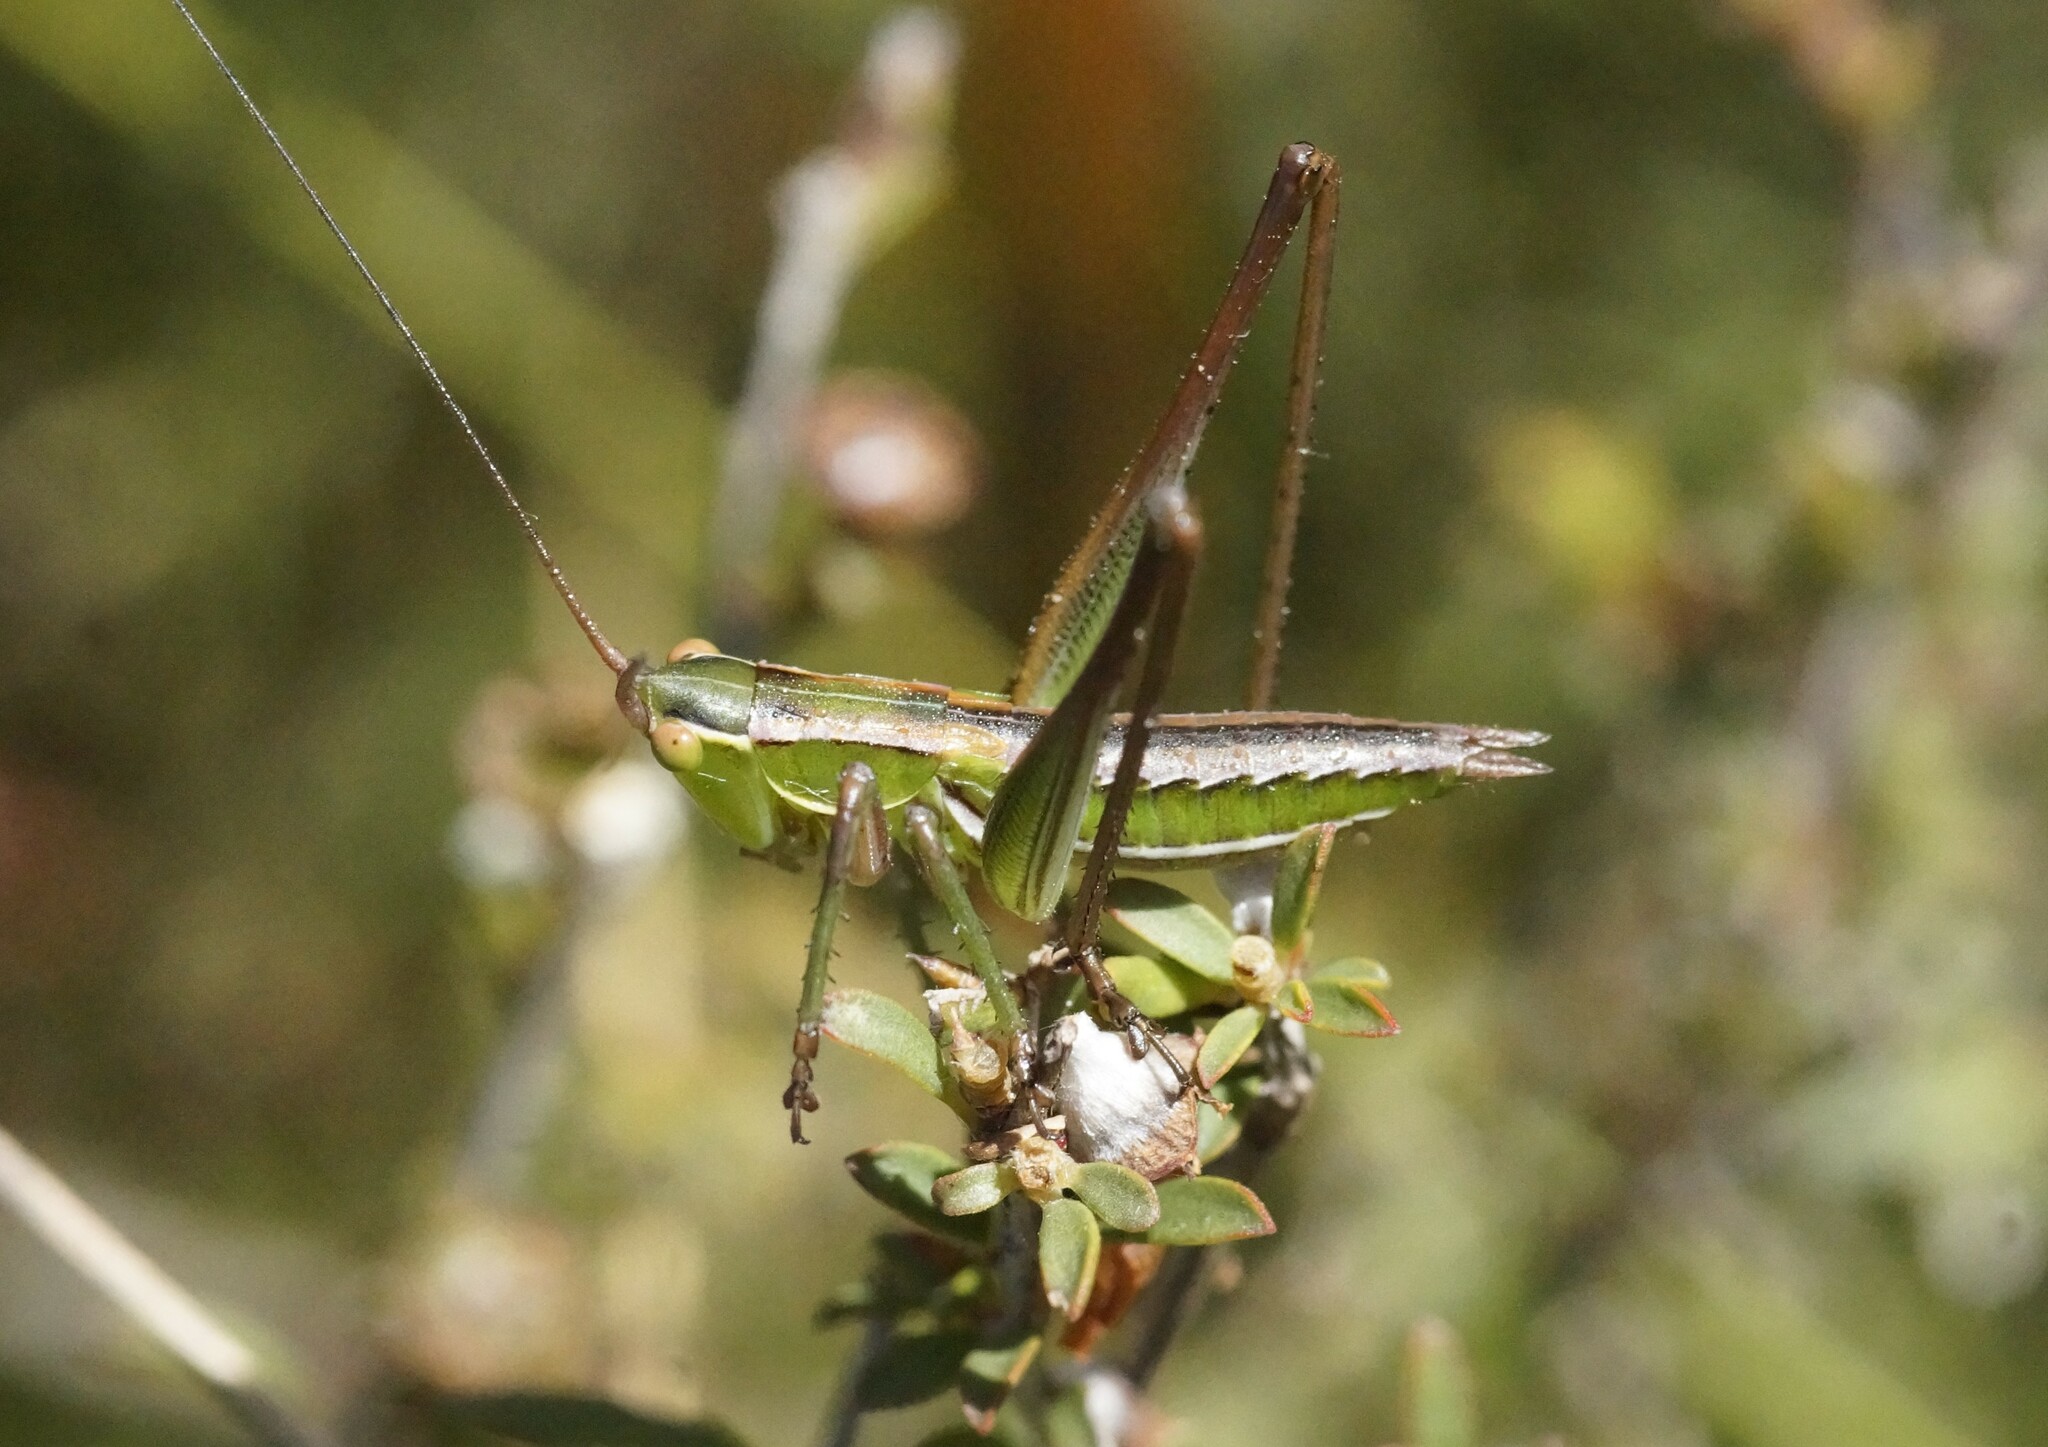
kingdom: Animalia
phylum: Arthropoda
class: Insecta
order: Orthoptera
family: Tettigoniidae
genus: Metaballus
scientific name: Metaballus sagaeformis
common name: Adelaide marauding katydid
